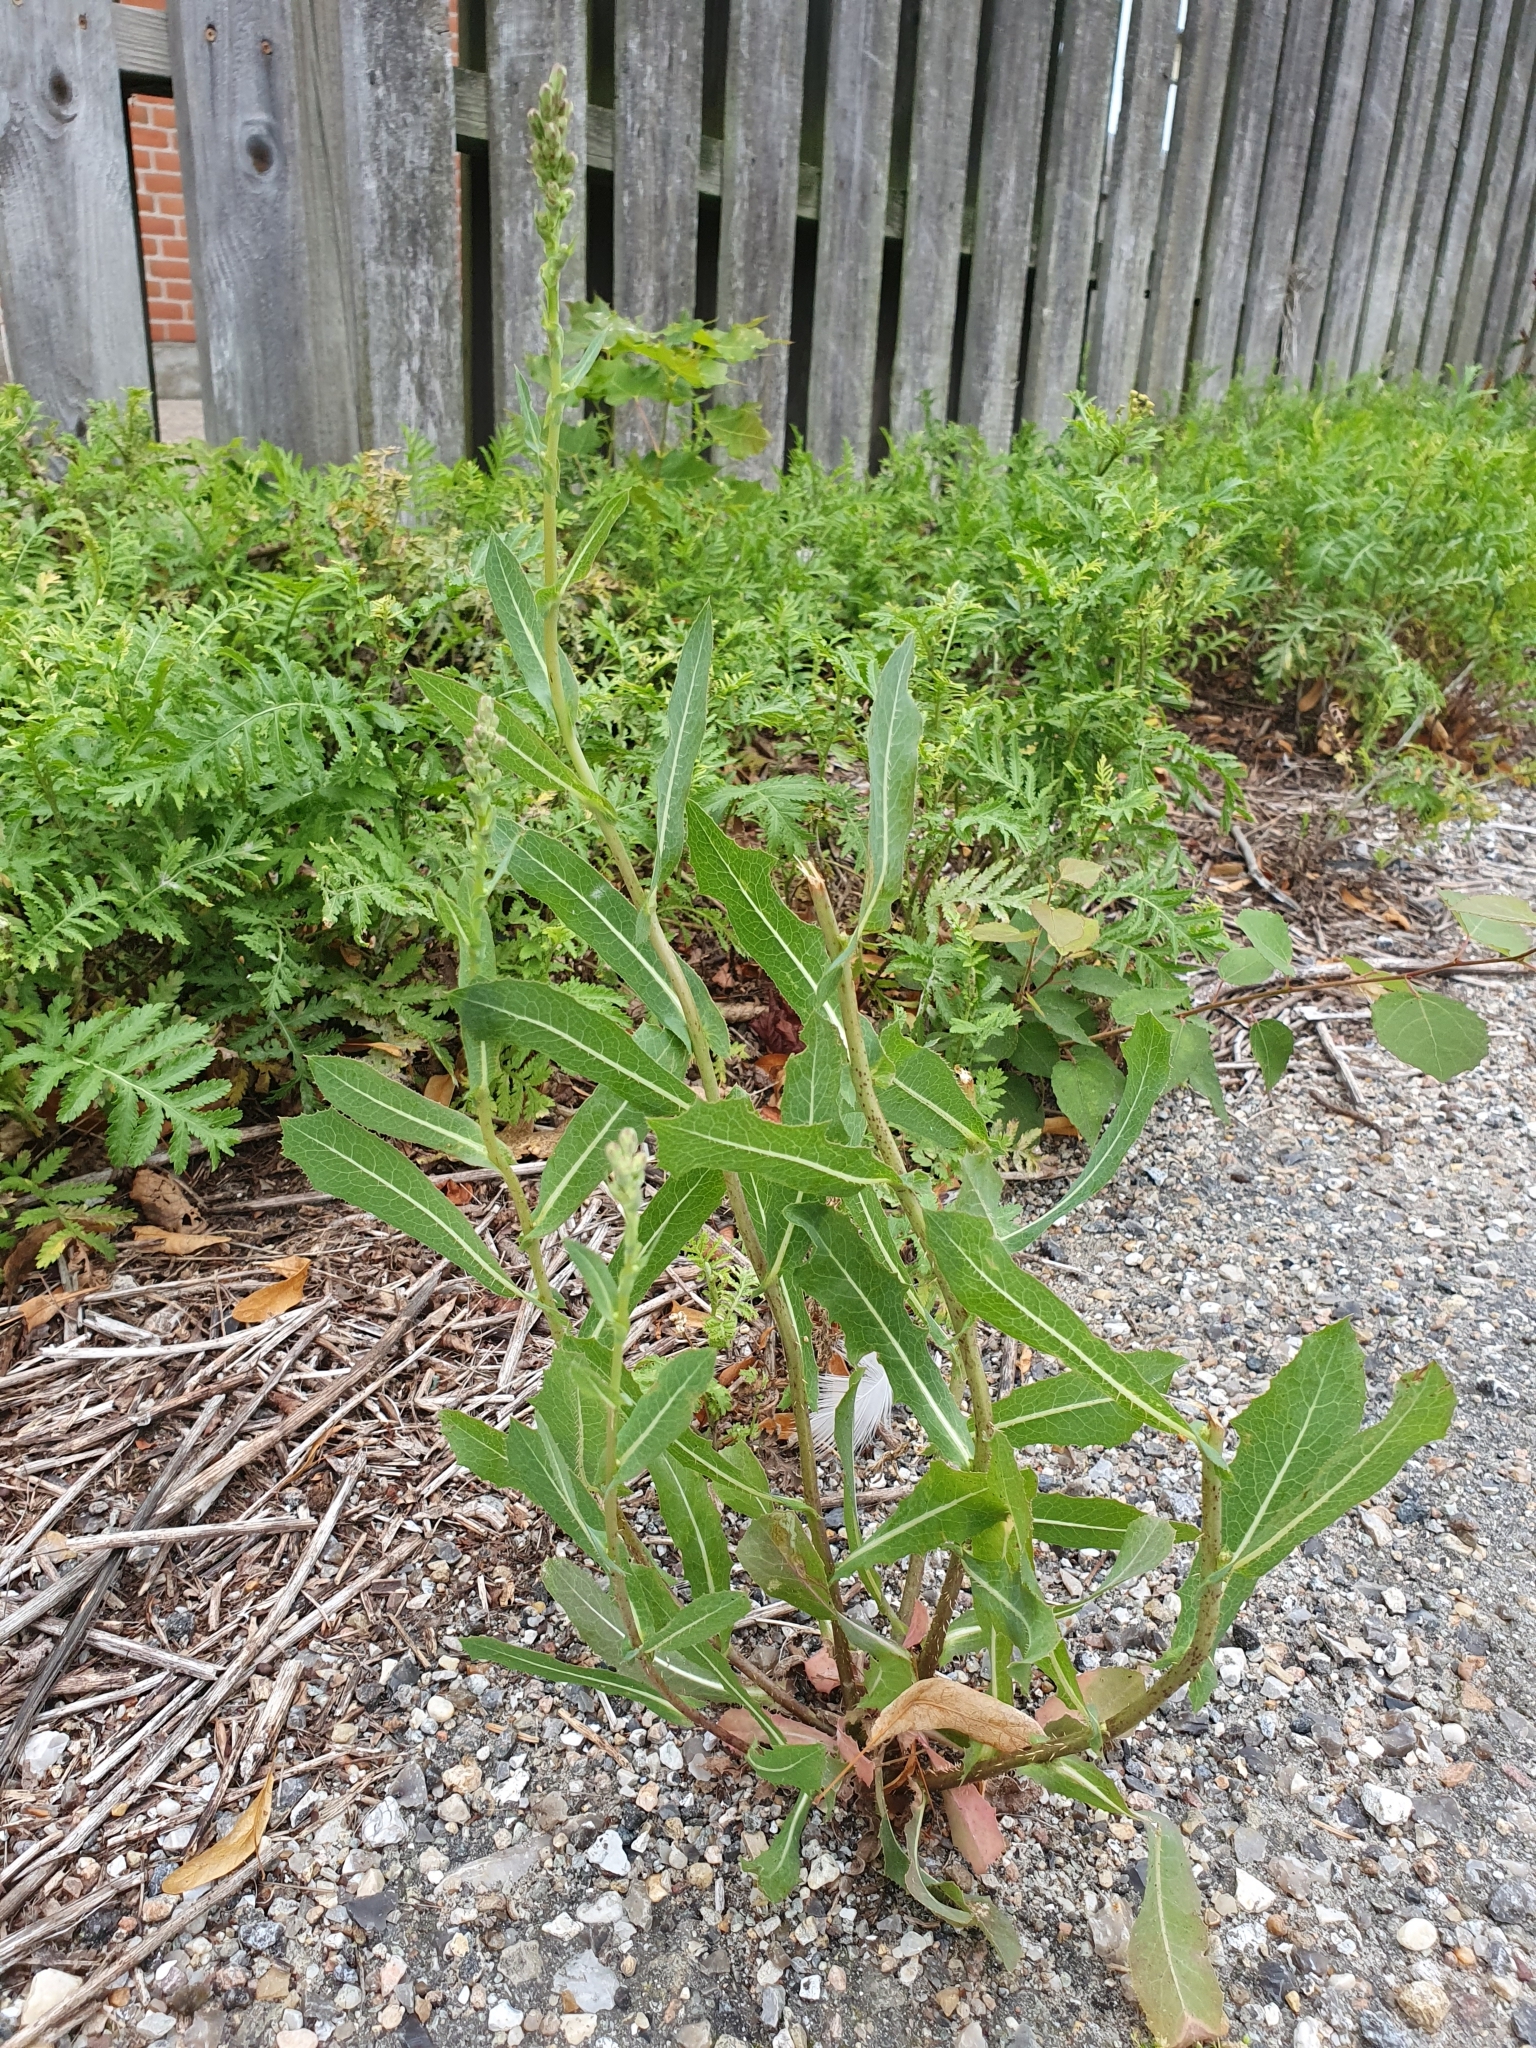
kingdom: Plantae
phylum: Tracheophyta
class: Magnoliopsida
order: Asterales
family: Asteraceae
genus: Lactuca
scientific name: Lactuca serriola
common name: Prickly lettuce
